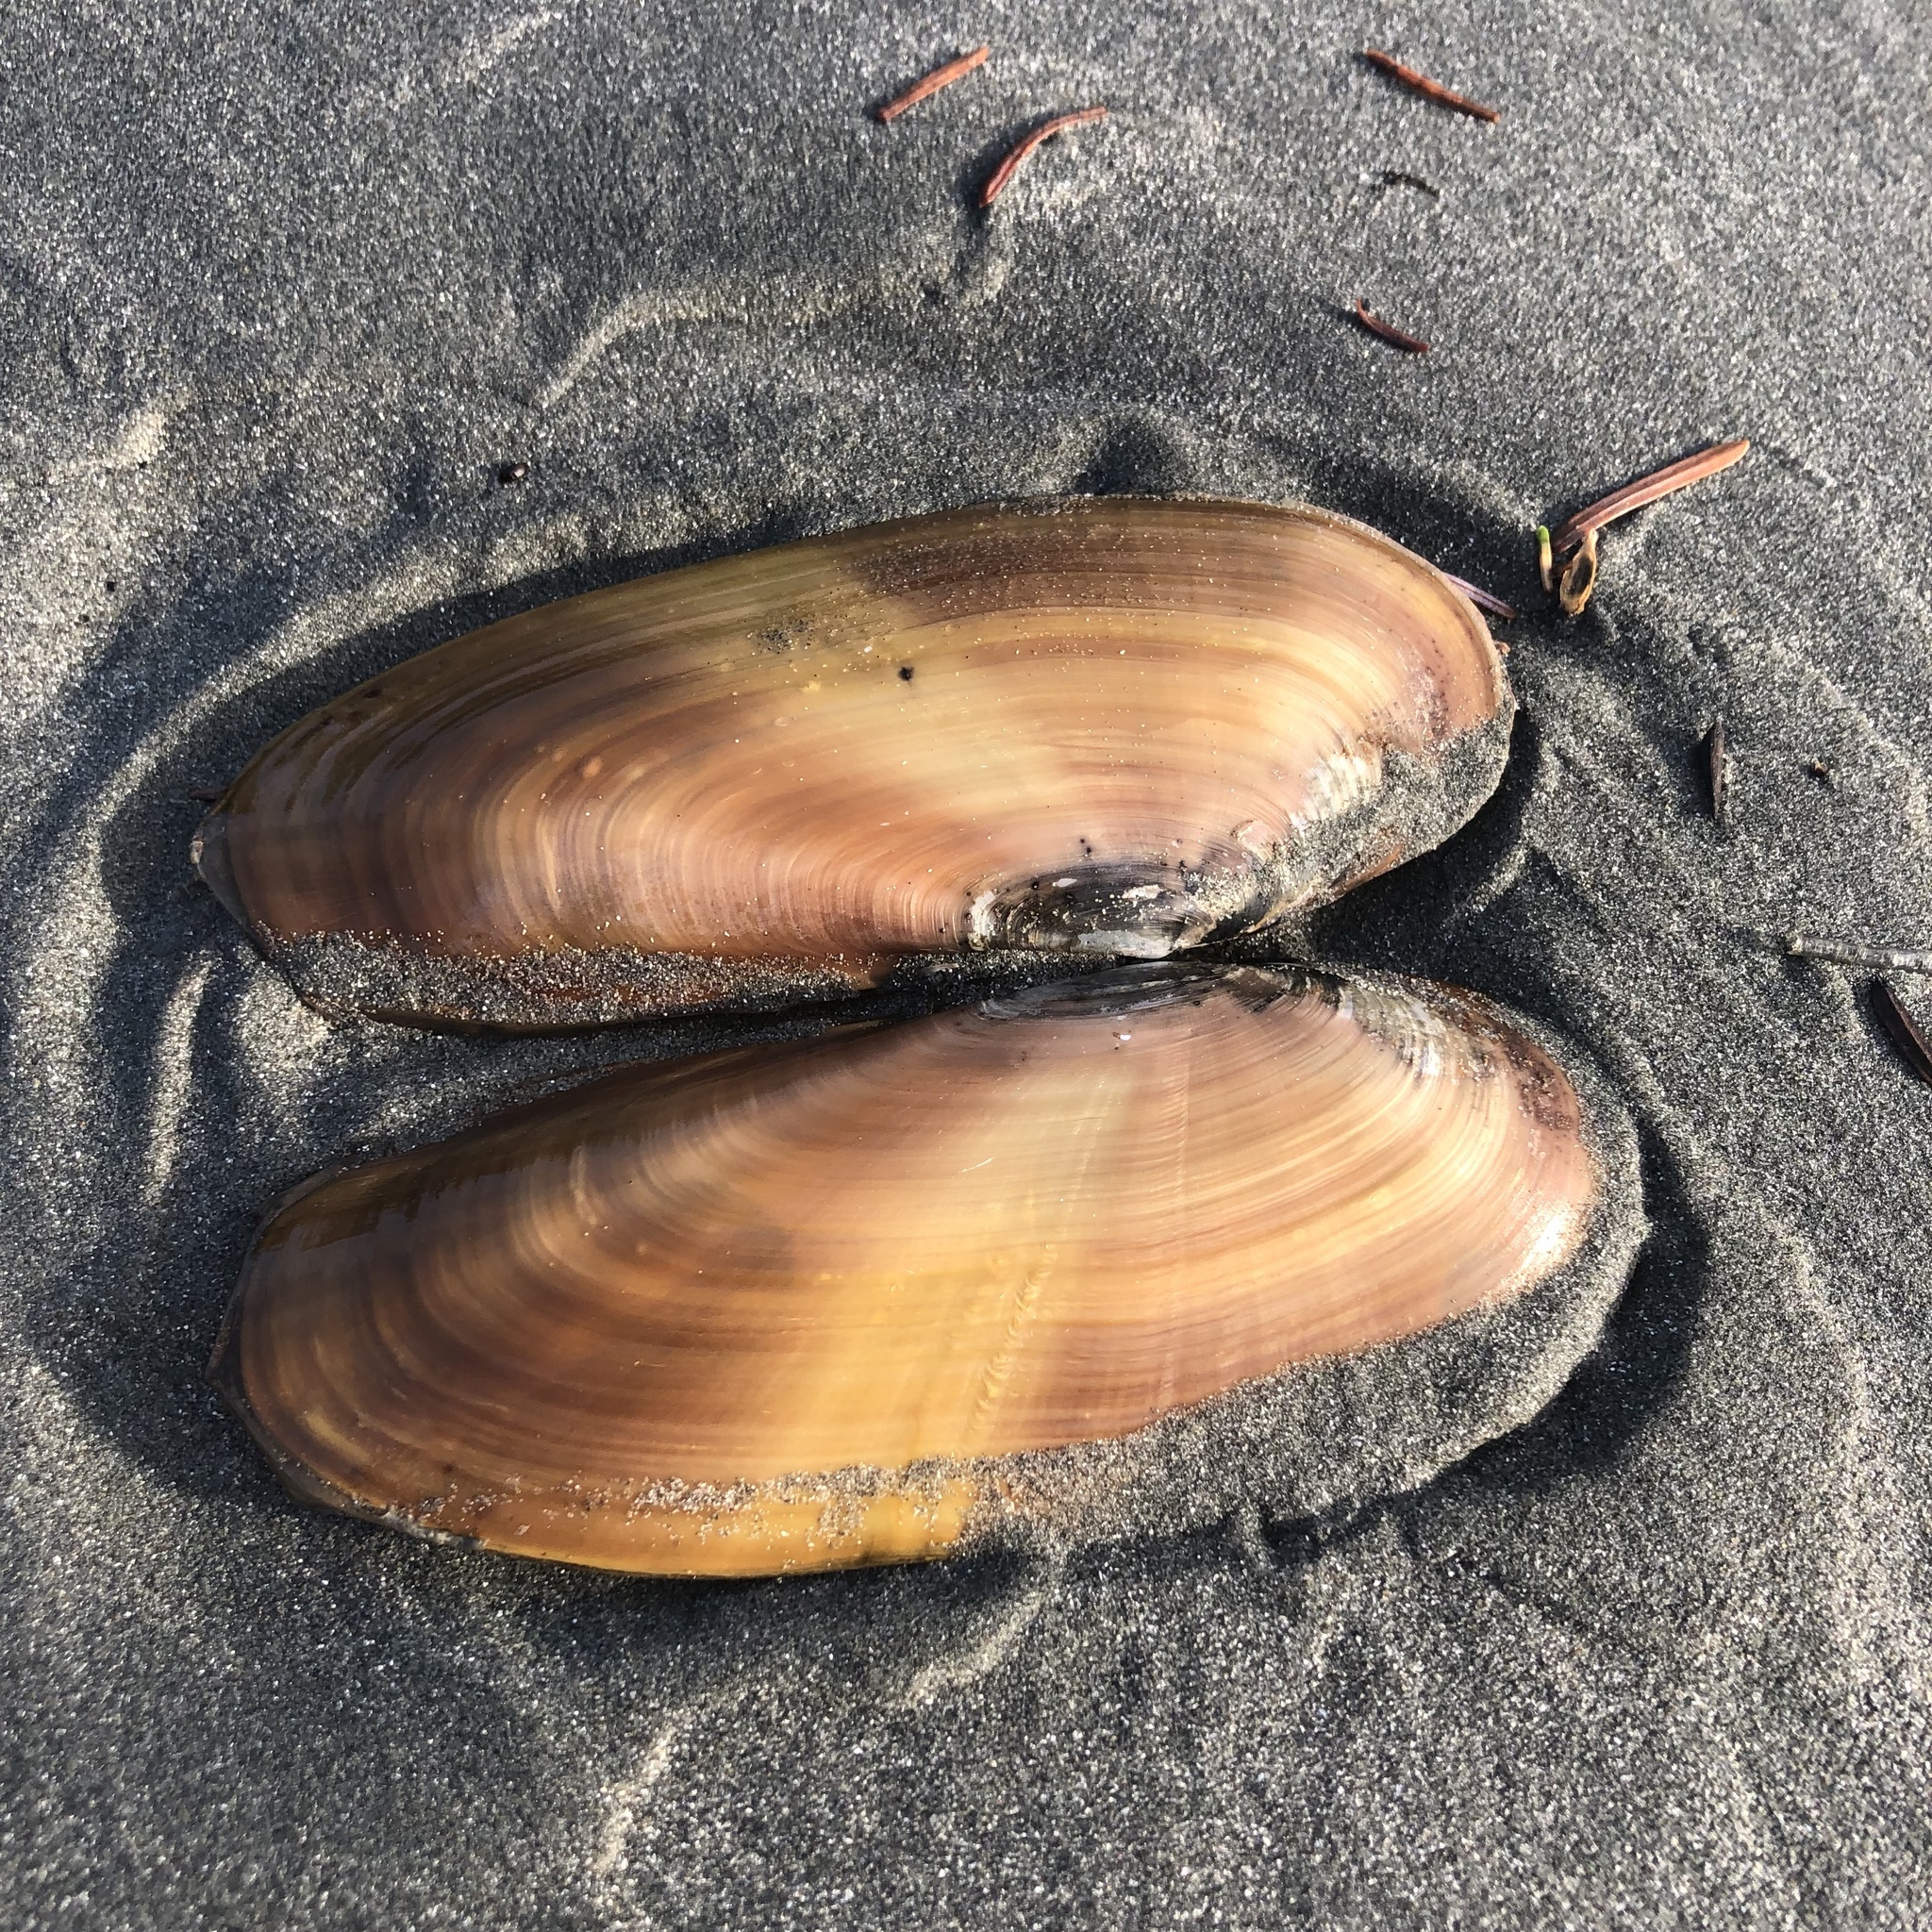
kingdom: Animalia
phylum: Mollusca
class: Bivalvia
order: Adapedonta
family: Pharidae
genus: Siliqua
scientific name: Siliqua patula
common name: Pacific razor clam
